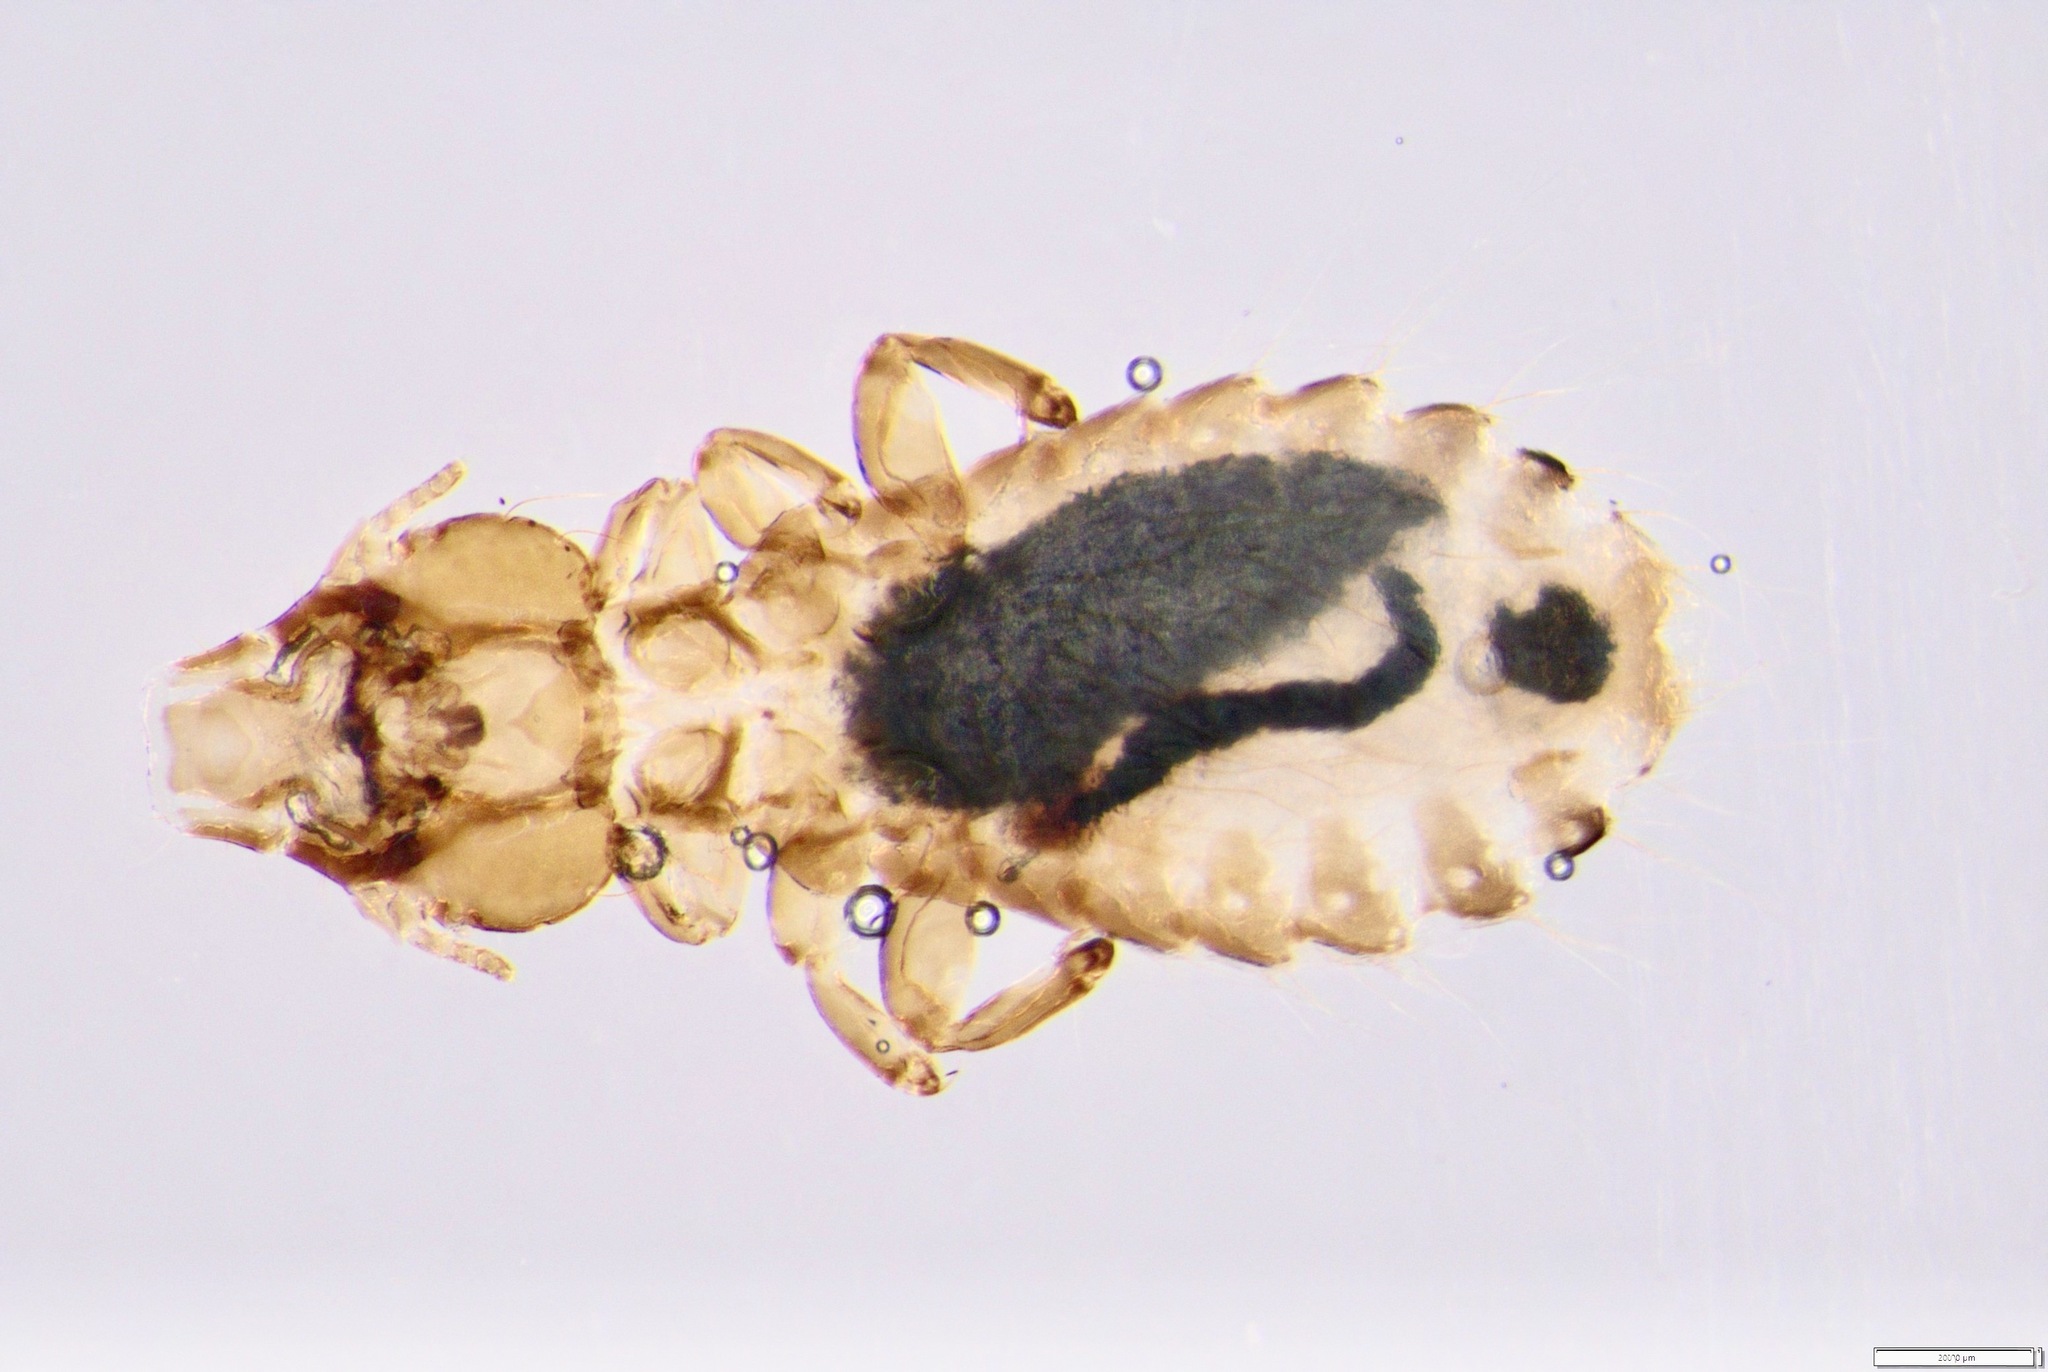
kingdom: Animalia
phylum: Arthropoda
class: Insecta
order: Psocodea
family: Philopteridae
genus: Strigiphilus
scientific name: Strigiphilus vapidus
